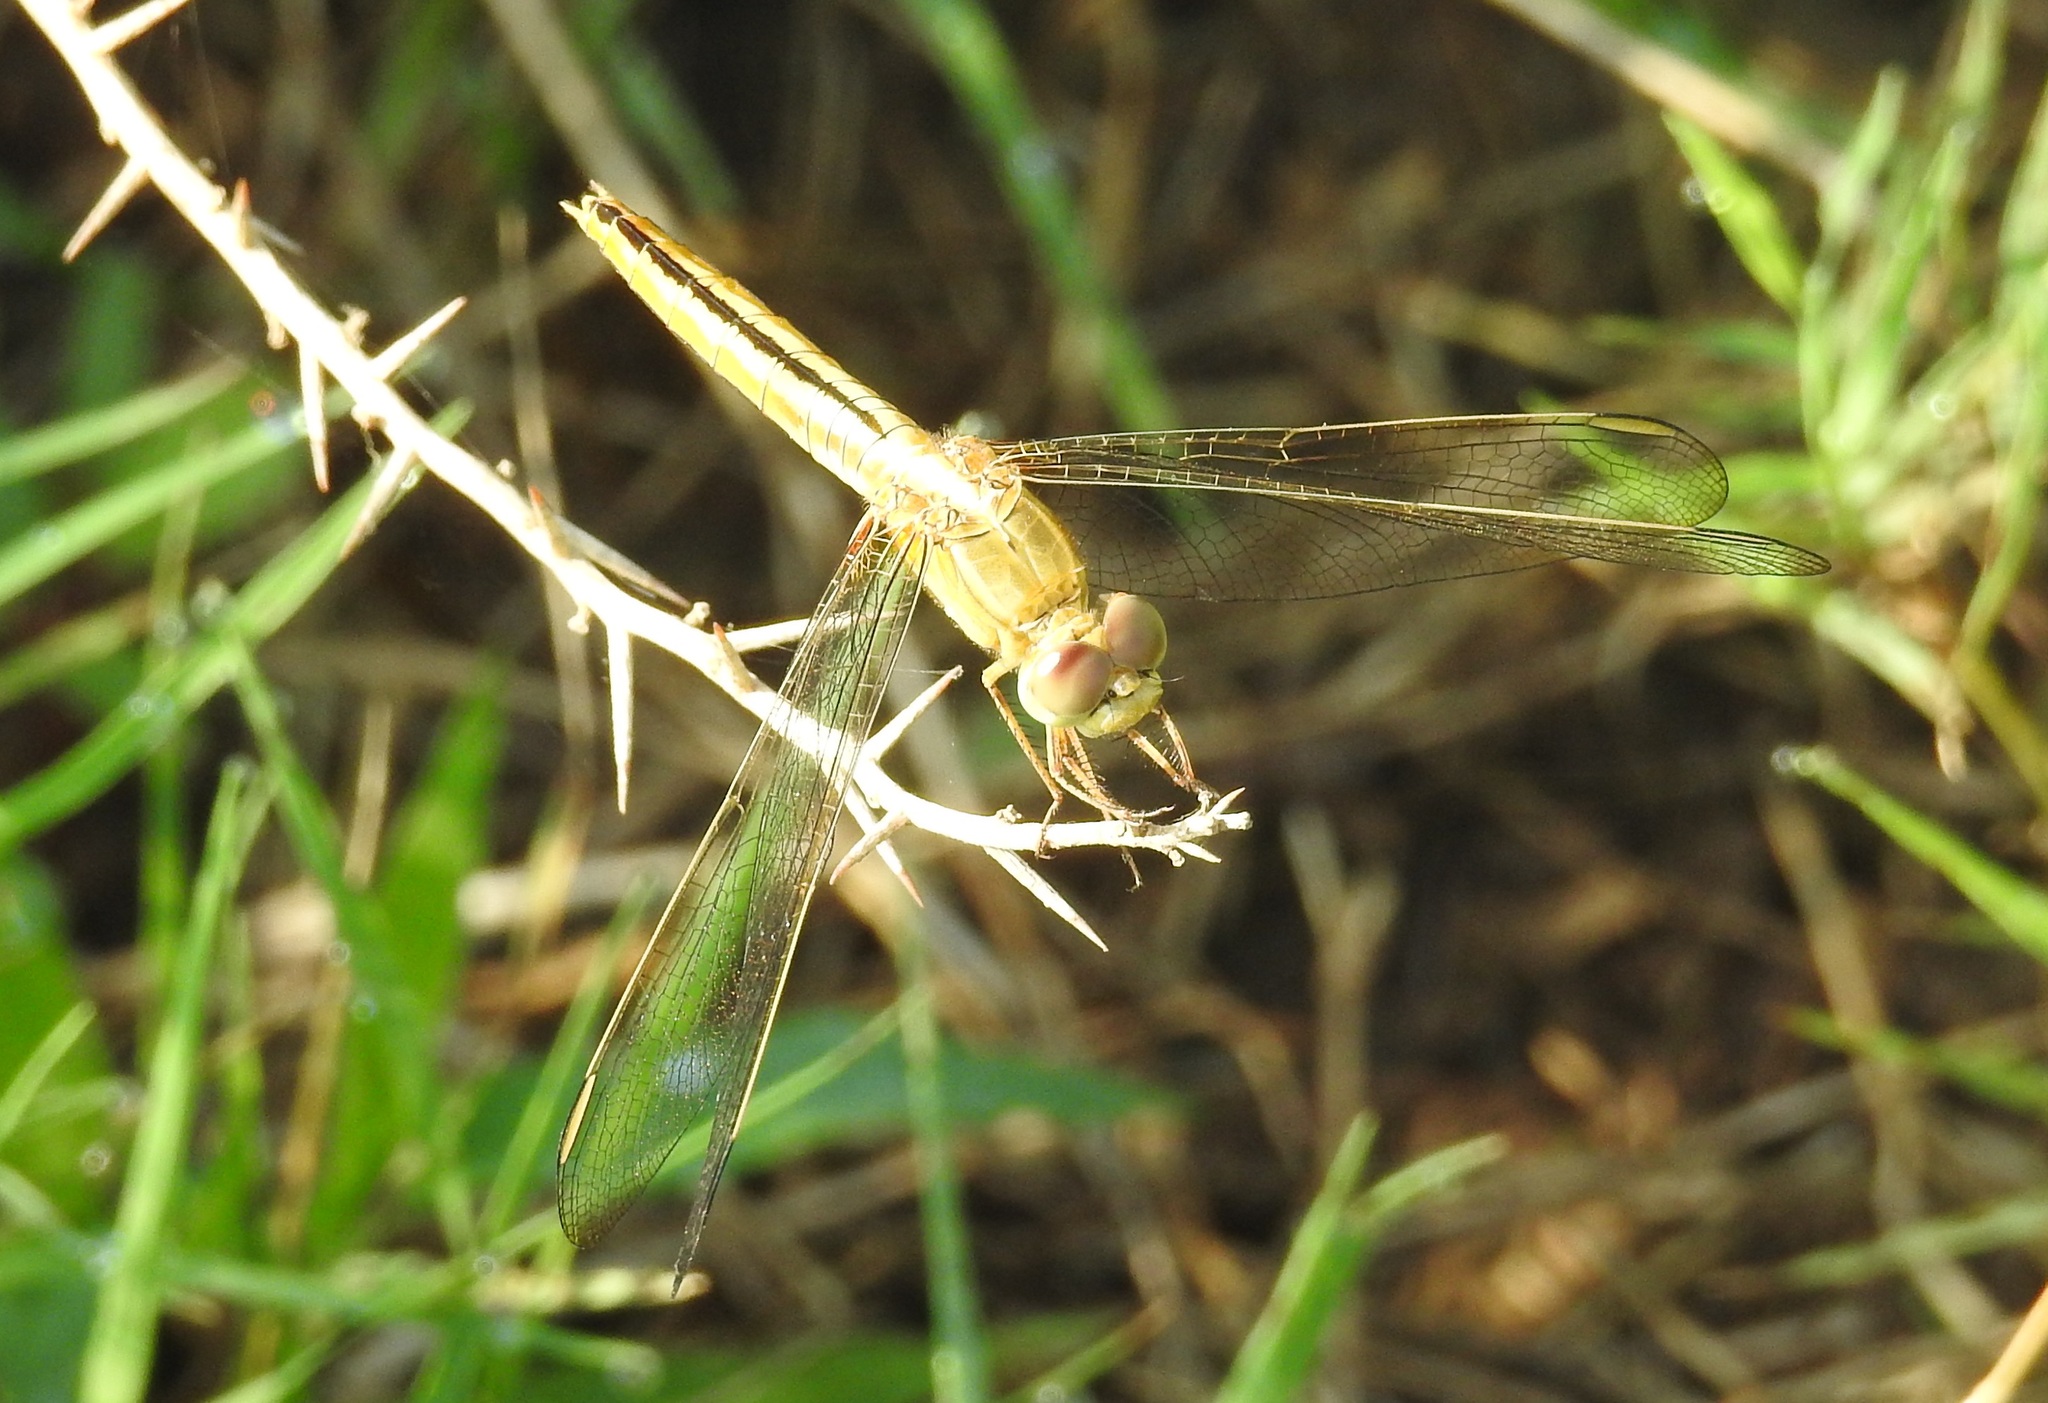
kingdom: Animalia
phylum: Arthropoda
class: Insecta
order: Odonata
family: Libellulidae
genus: Crocothemis
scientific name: Crocothemis servilia
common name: Scarlet skimmer
